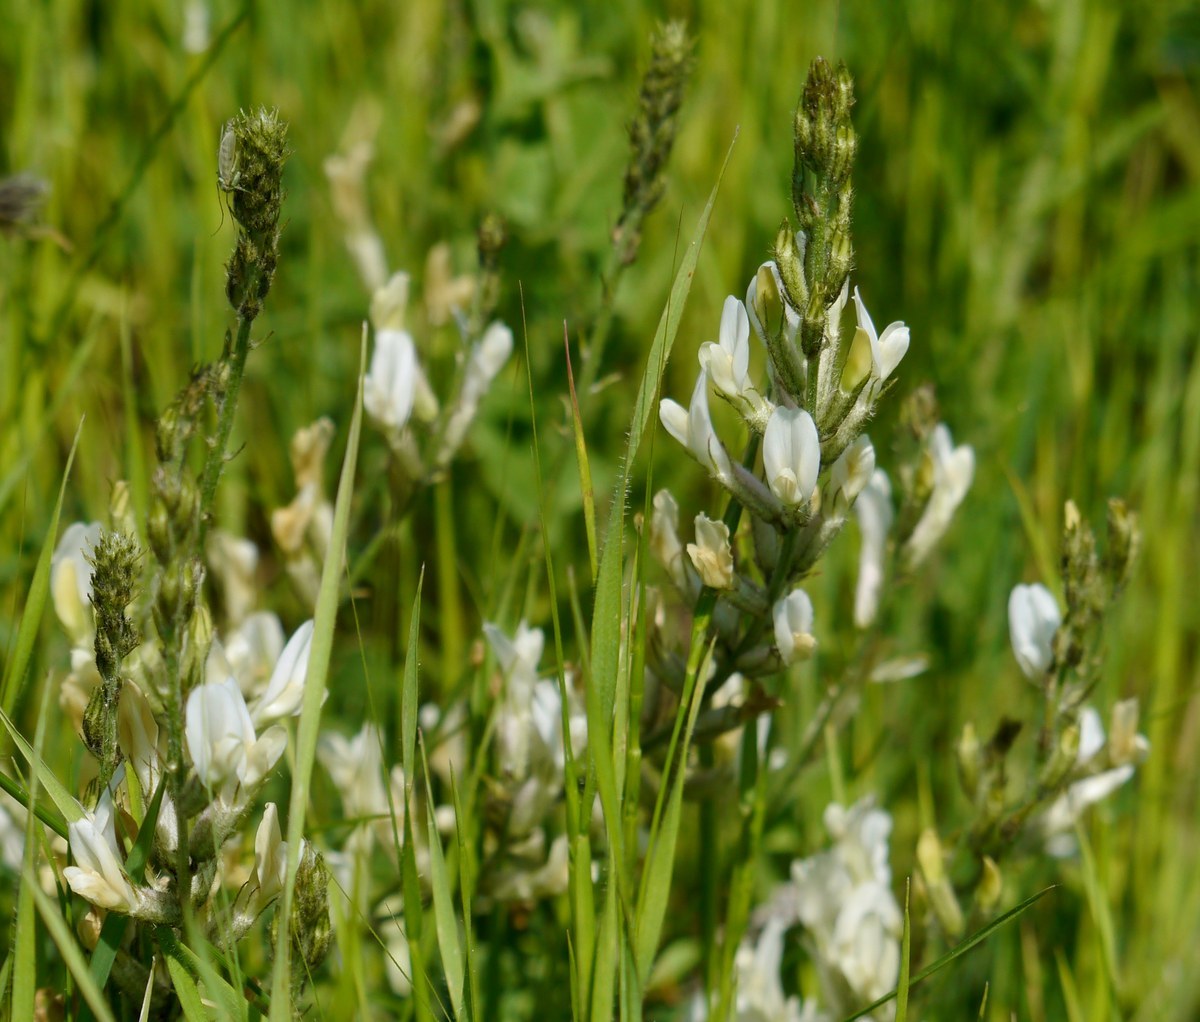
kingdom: Plantae
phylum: Tracheophyta
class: Magnoliopsida
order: Fabales
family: Fabaceae
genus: Astragalus
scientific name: Astragalus pallescens
